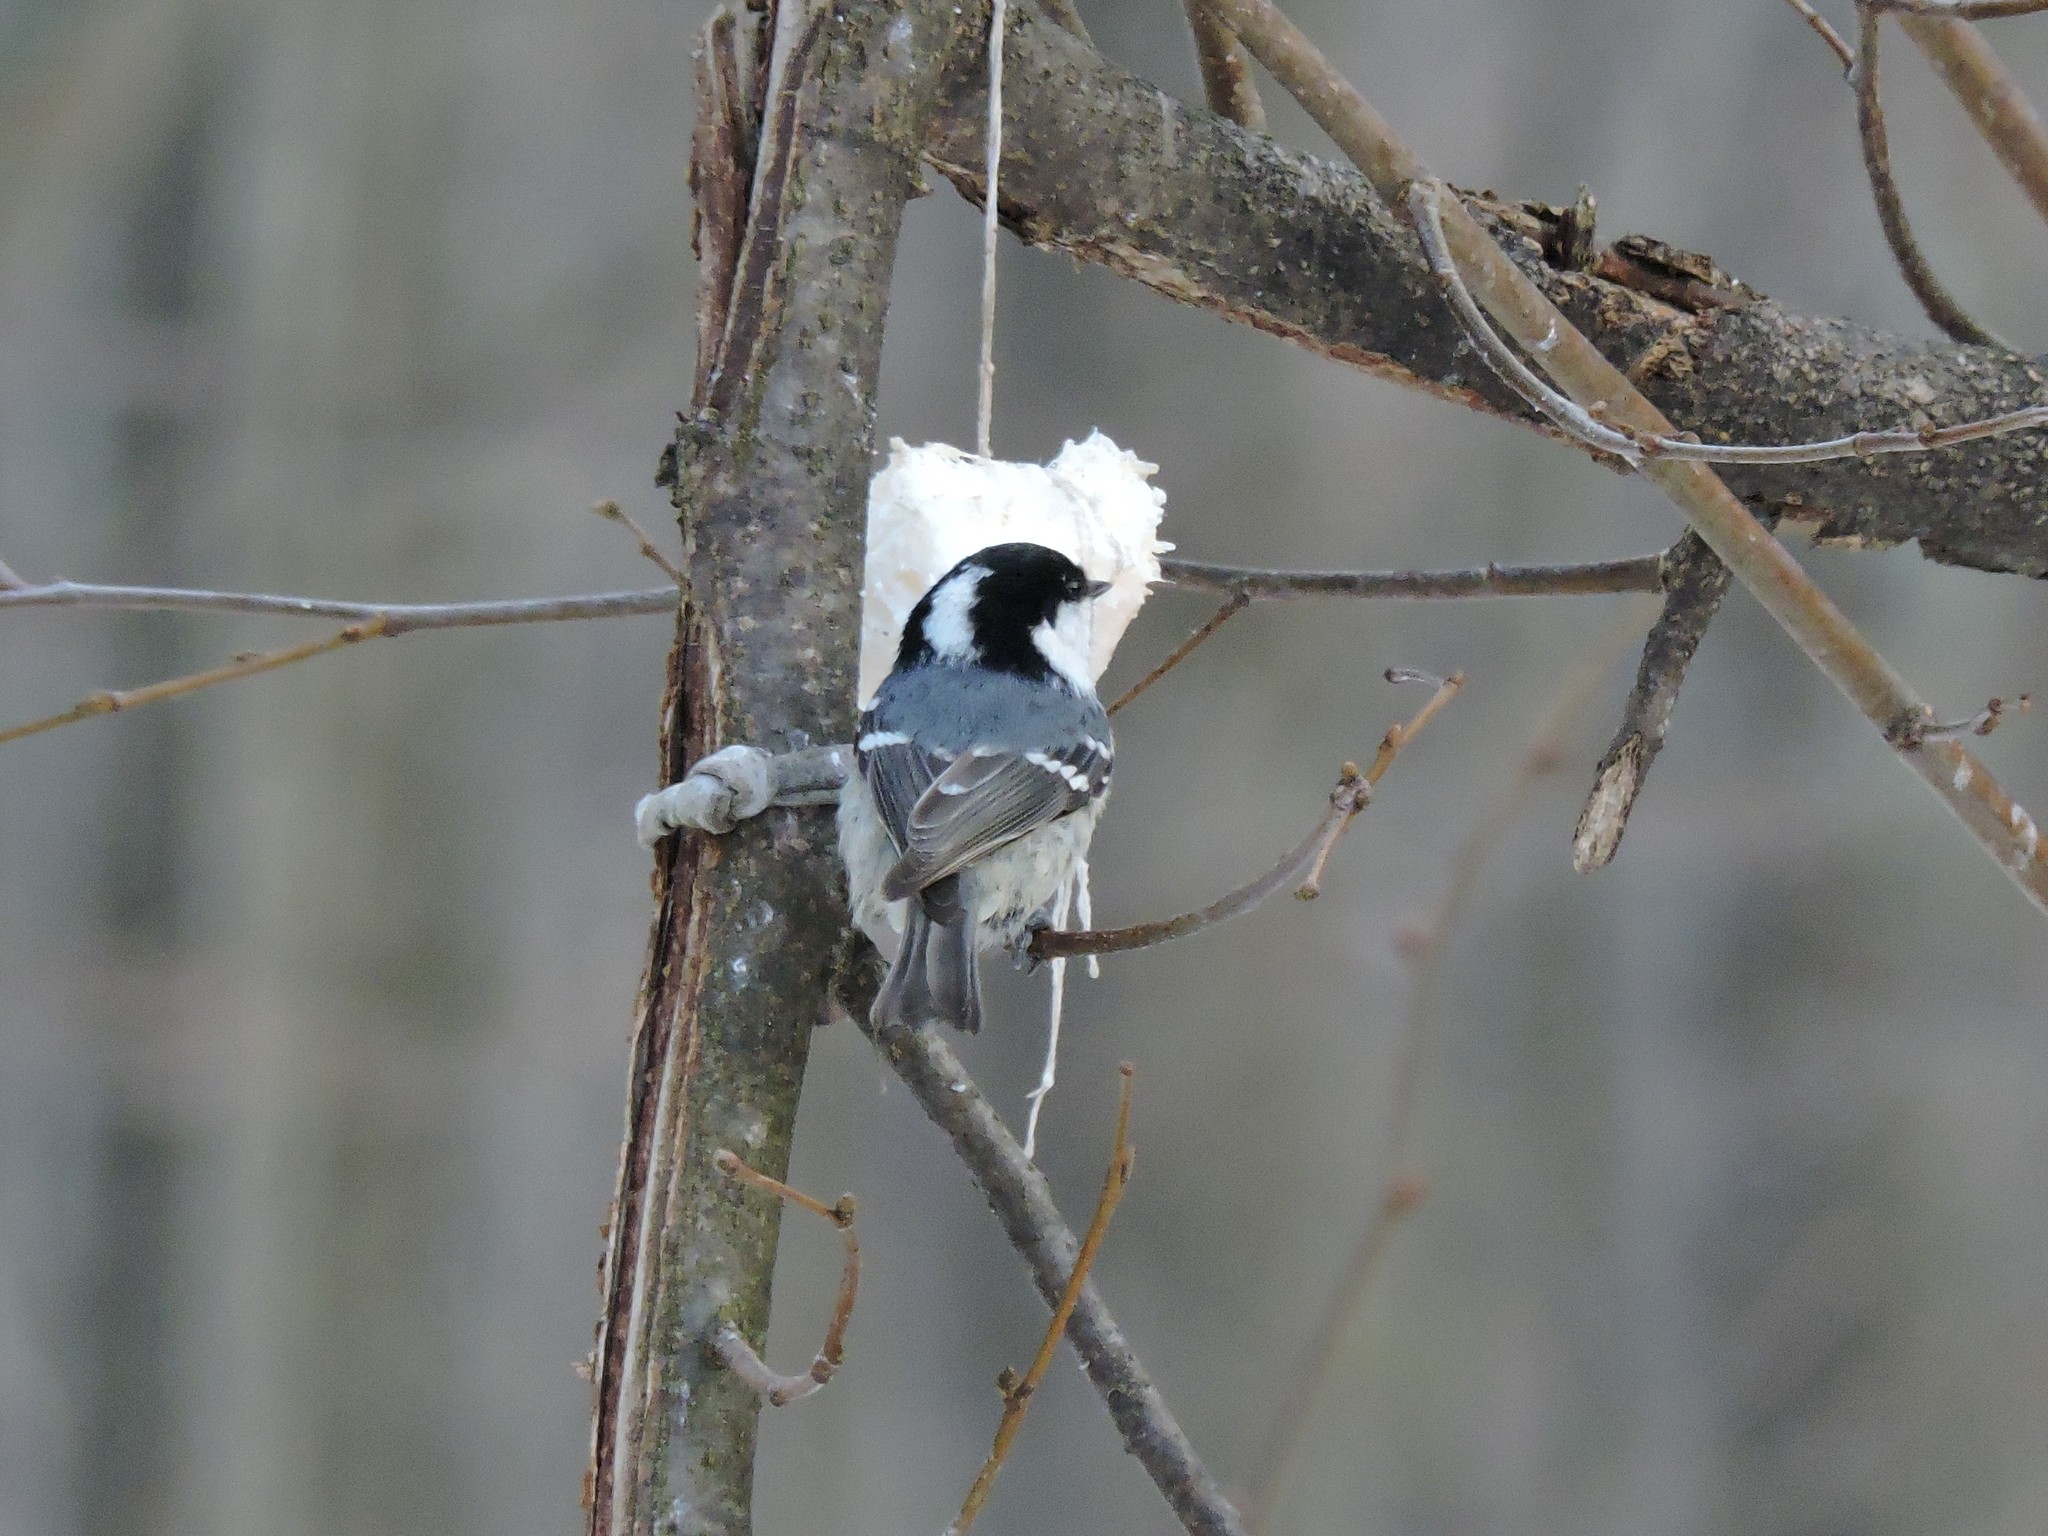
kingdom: Animalia
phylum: Chordata
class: Aves
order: Passeriformes
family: Paridae
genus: Periparus
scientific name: Periparus ater
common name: Coal tit
